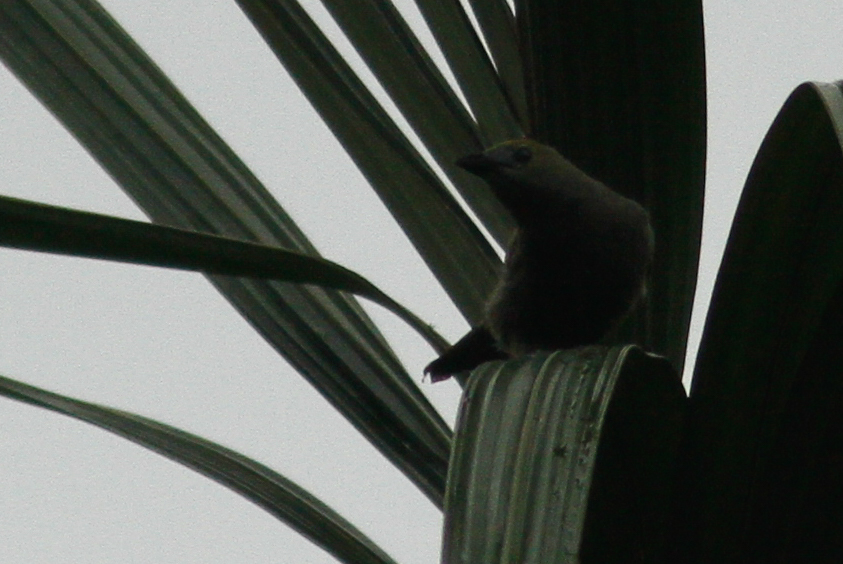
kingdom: Animalia
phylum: Chordata
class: Aves
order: Passeriformes
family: Thraupidae
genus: Thraupis
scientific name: Thraupis palmarum
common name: Palm tanager
